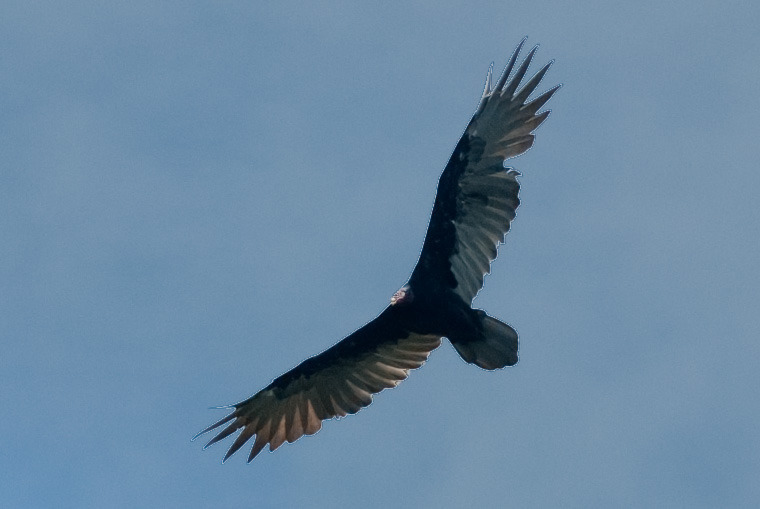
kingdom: Animalia
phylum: Chordata
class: Aves
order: Accipitriformes
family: Cathartidae
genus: Cathartes
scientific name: Cathartes aura
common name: Turkey vulture
